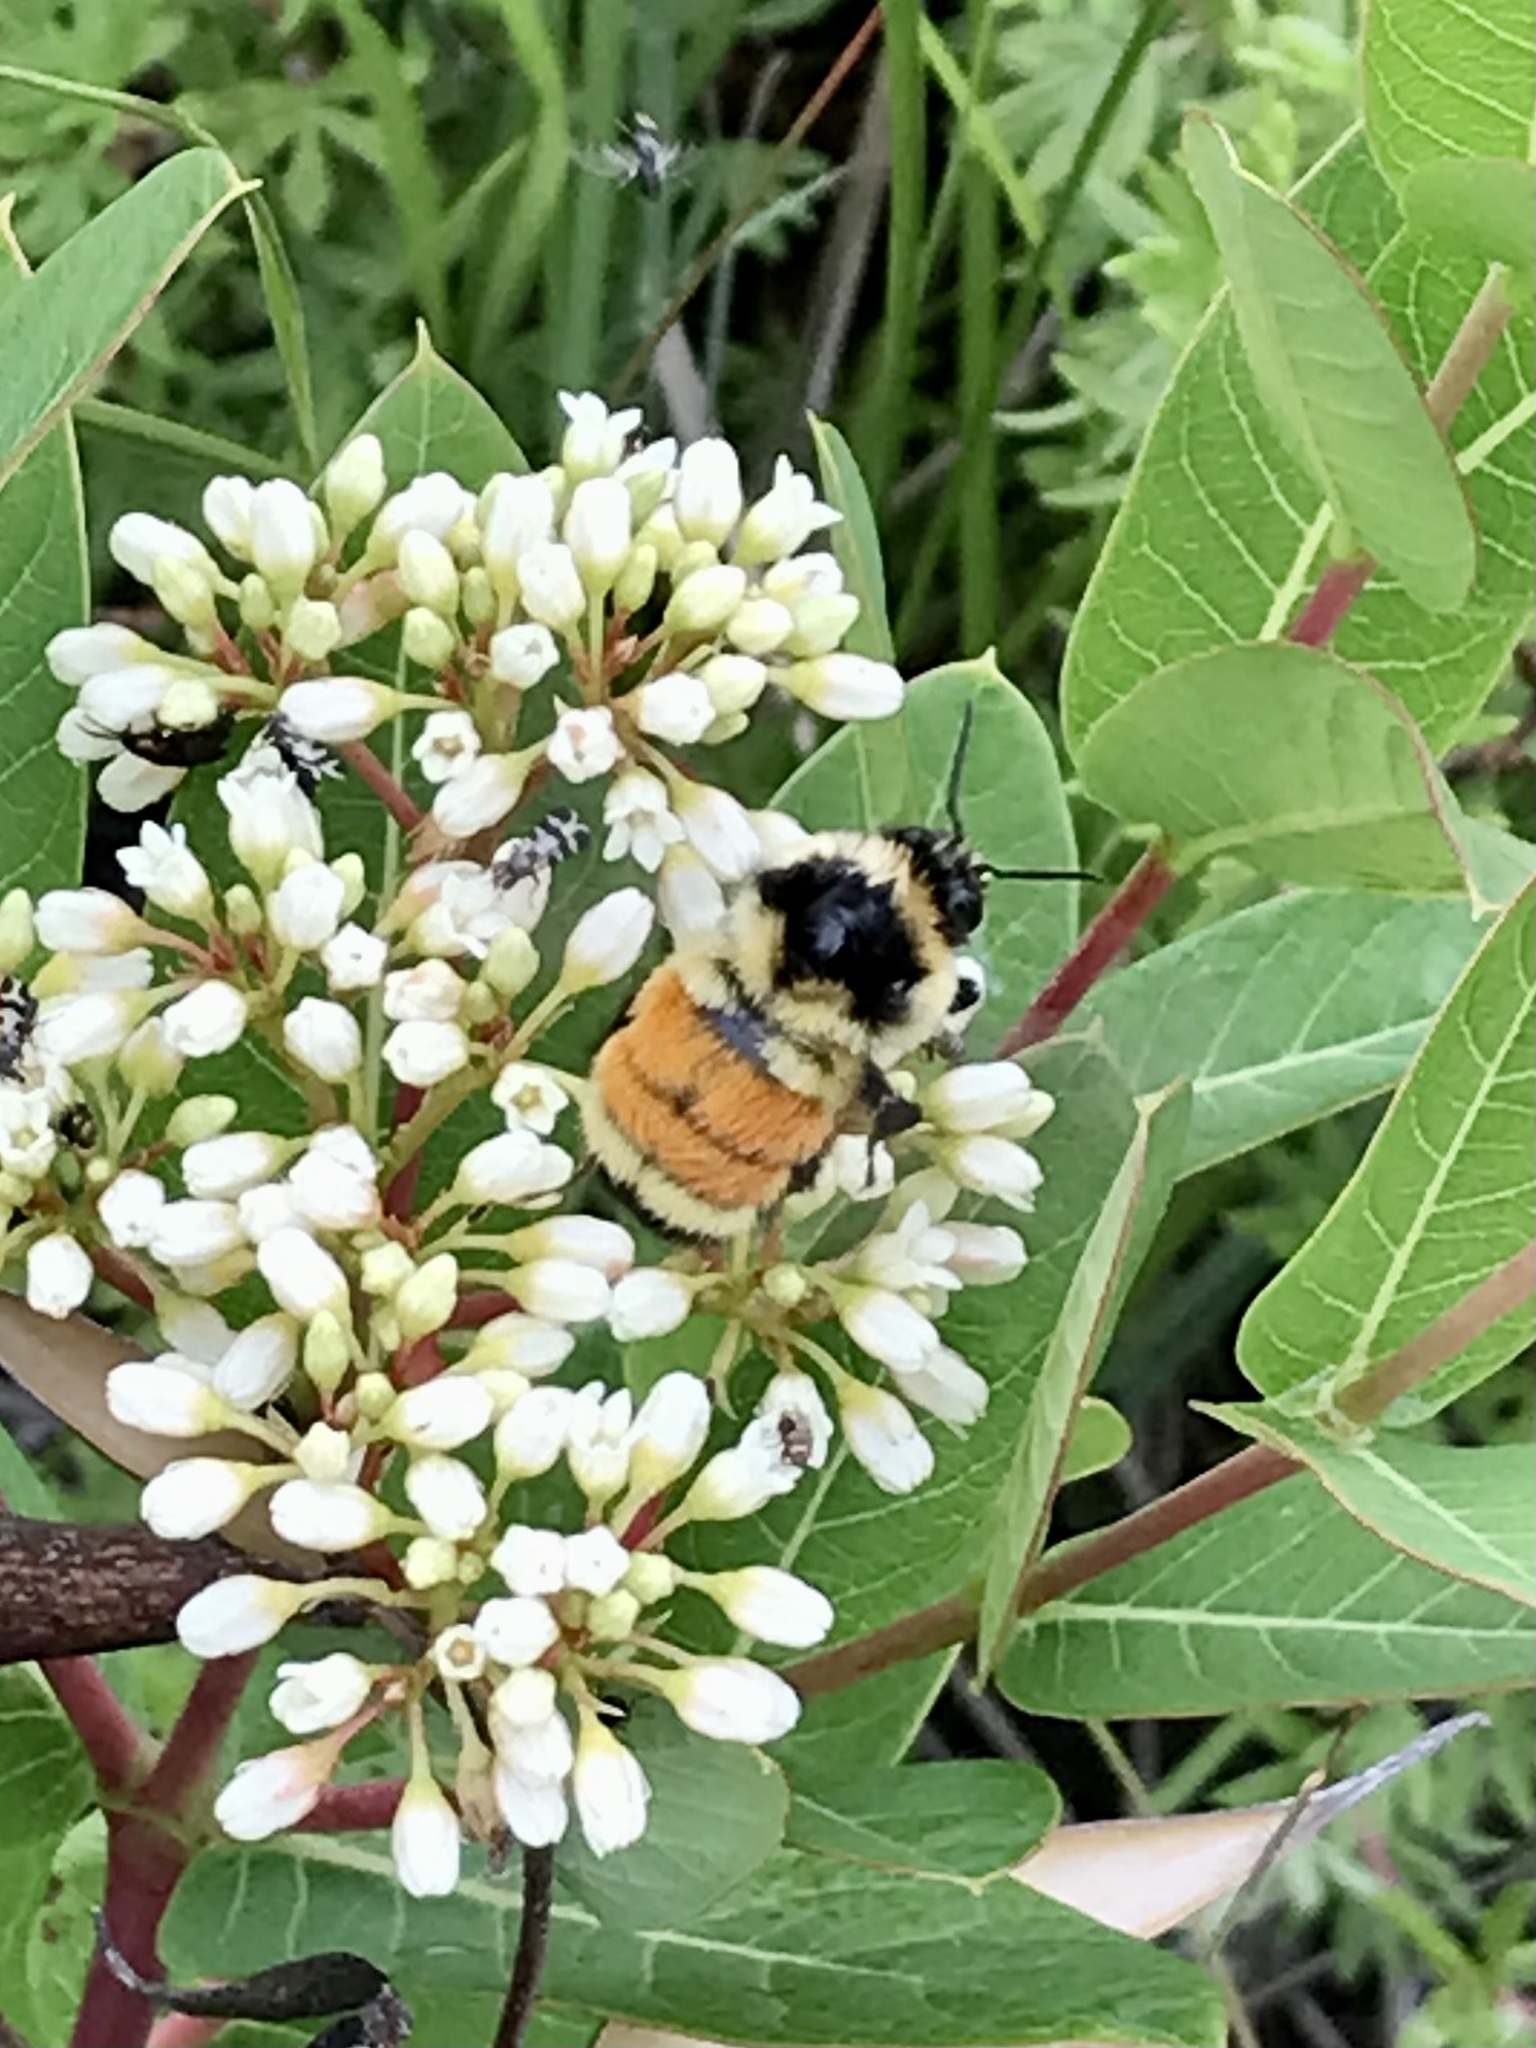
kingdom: Animalia
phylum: Arthropoda
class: Insecta
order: Hymenoptera
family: Apidae
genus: Bombus
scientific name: Bombus ternarius
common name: Tri-colored bumble bee
